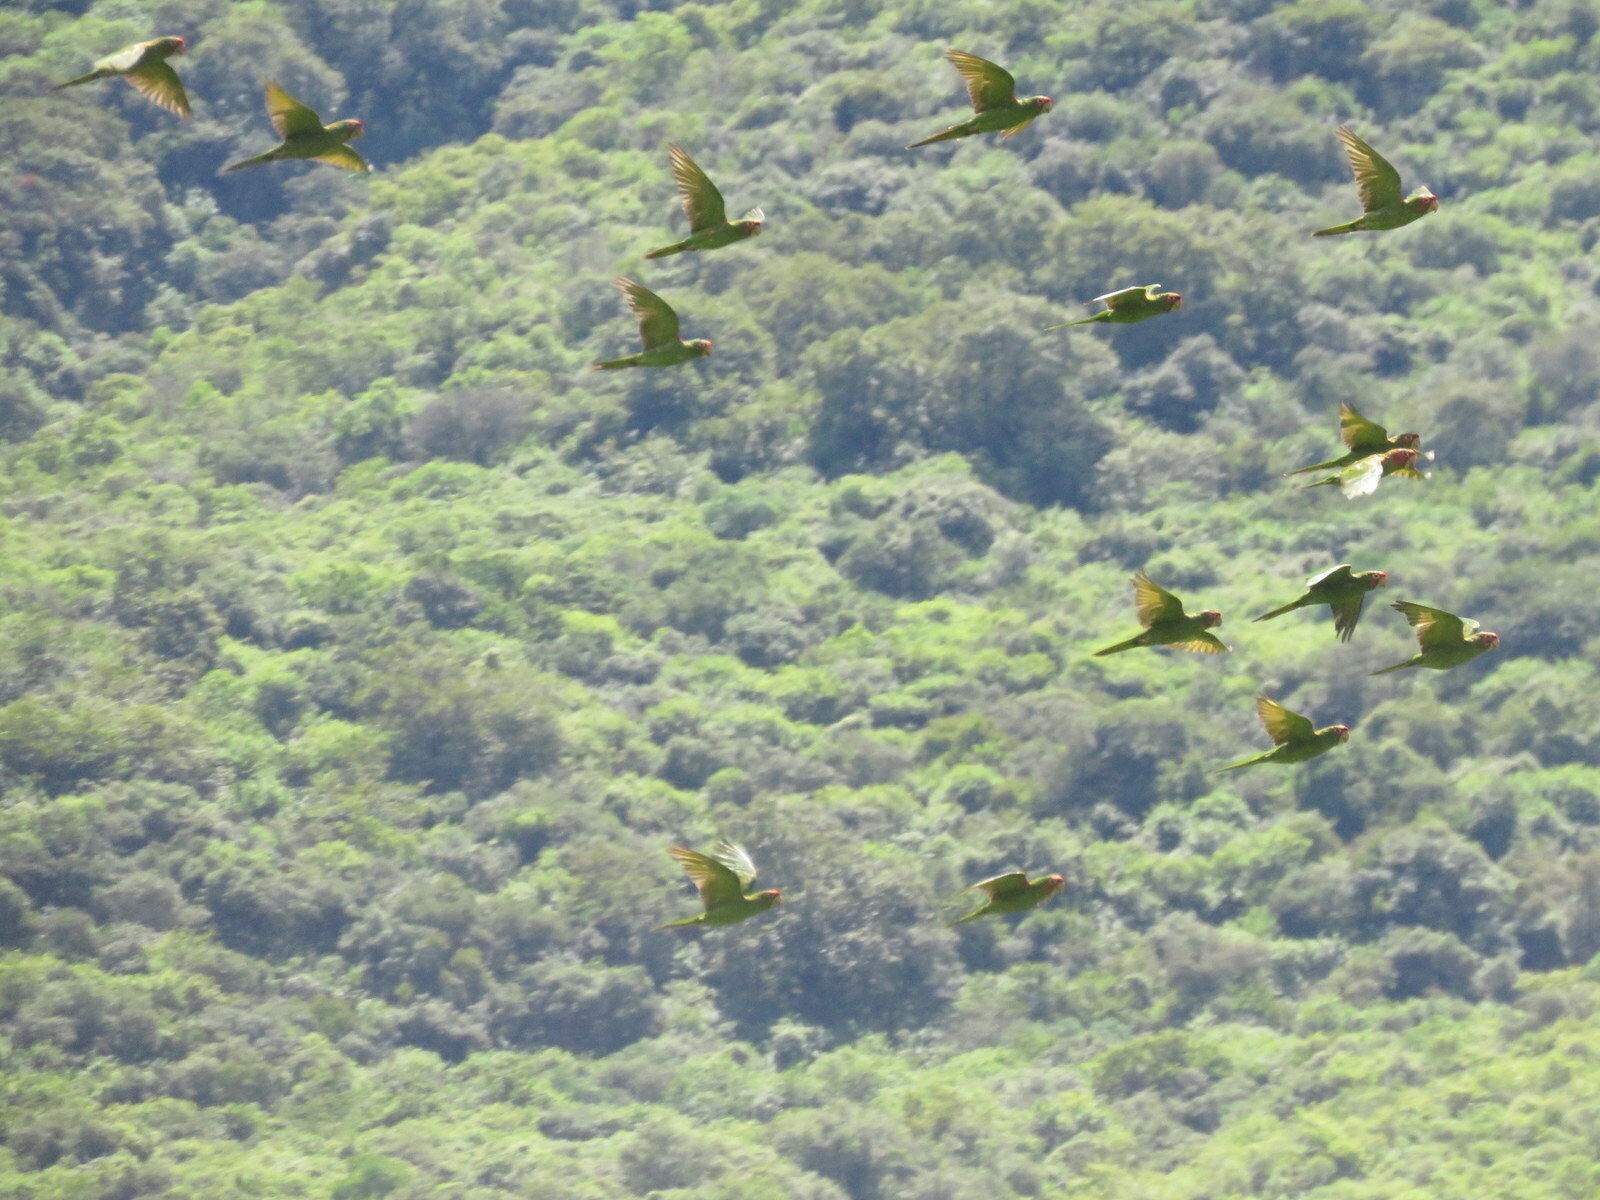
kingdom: Animalia
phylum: Chordata
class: Aves
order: Psittaciformes
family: Psittacidae
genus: Aratinga
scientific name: Aratinga mitrata
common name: Mitred parakeet
